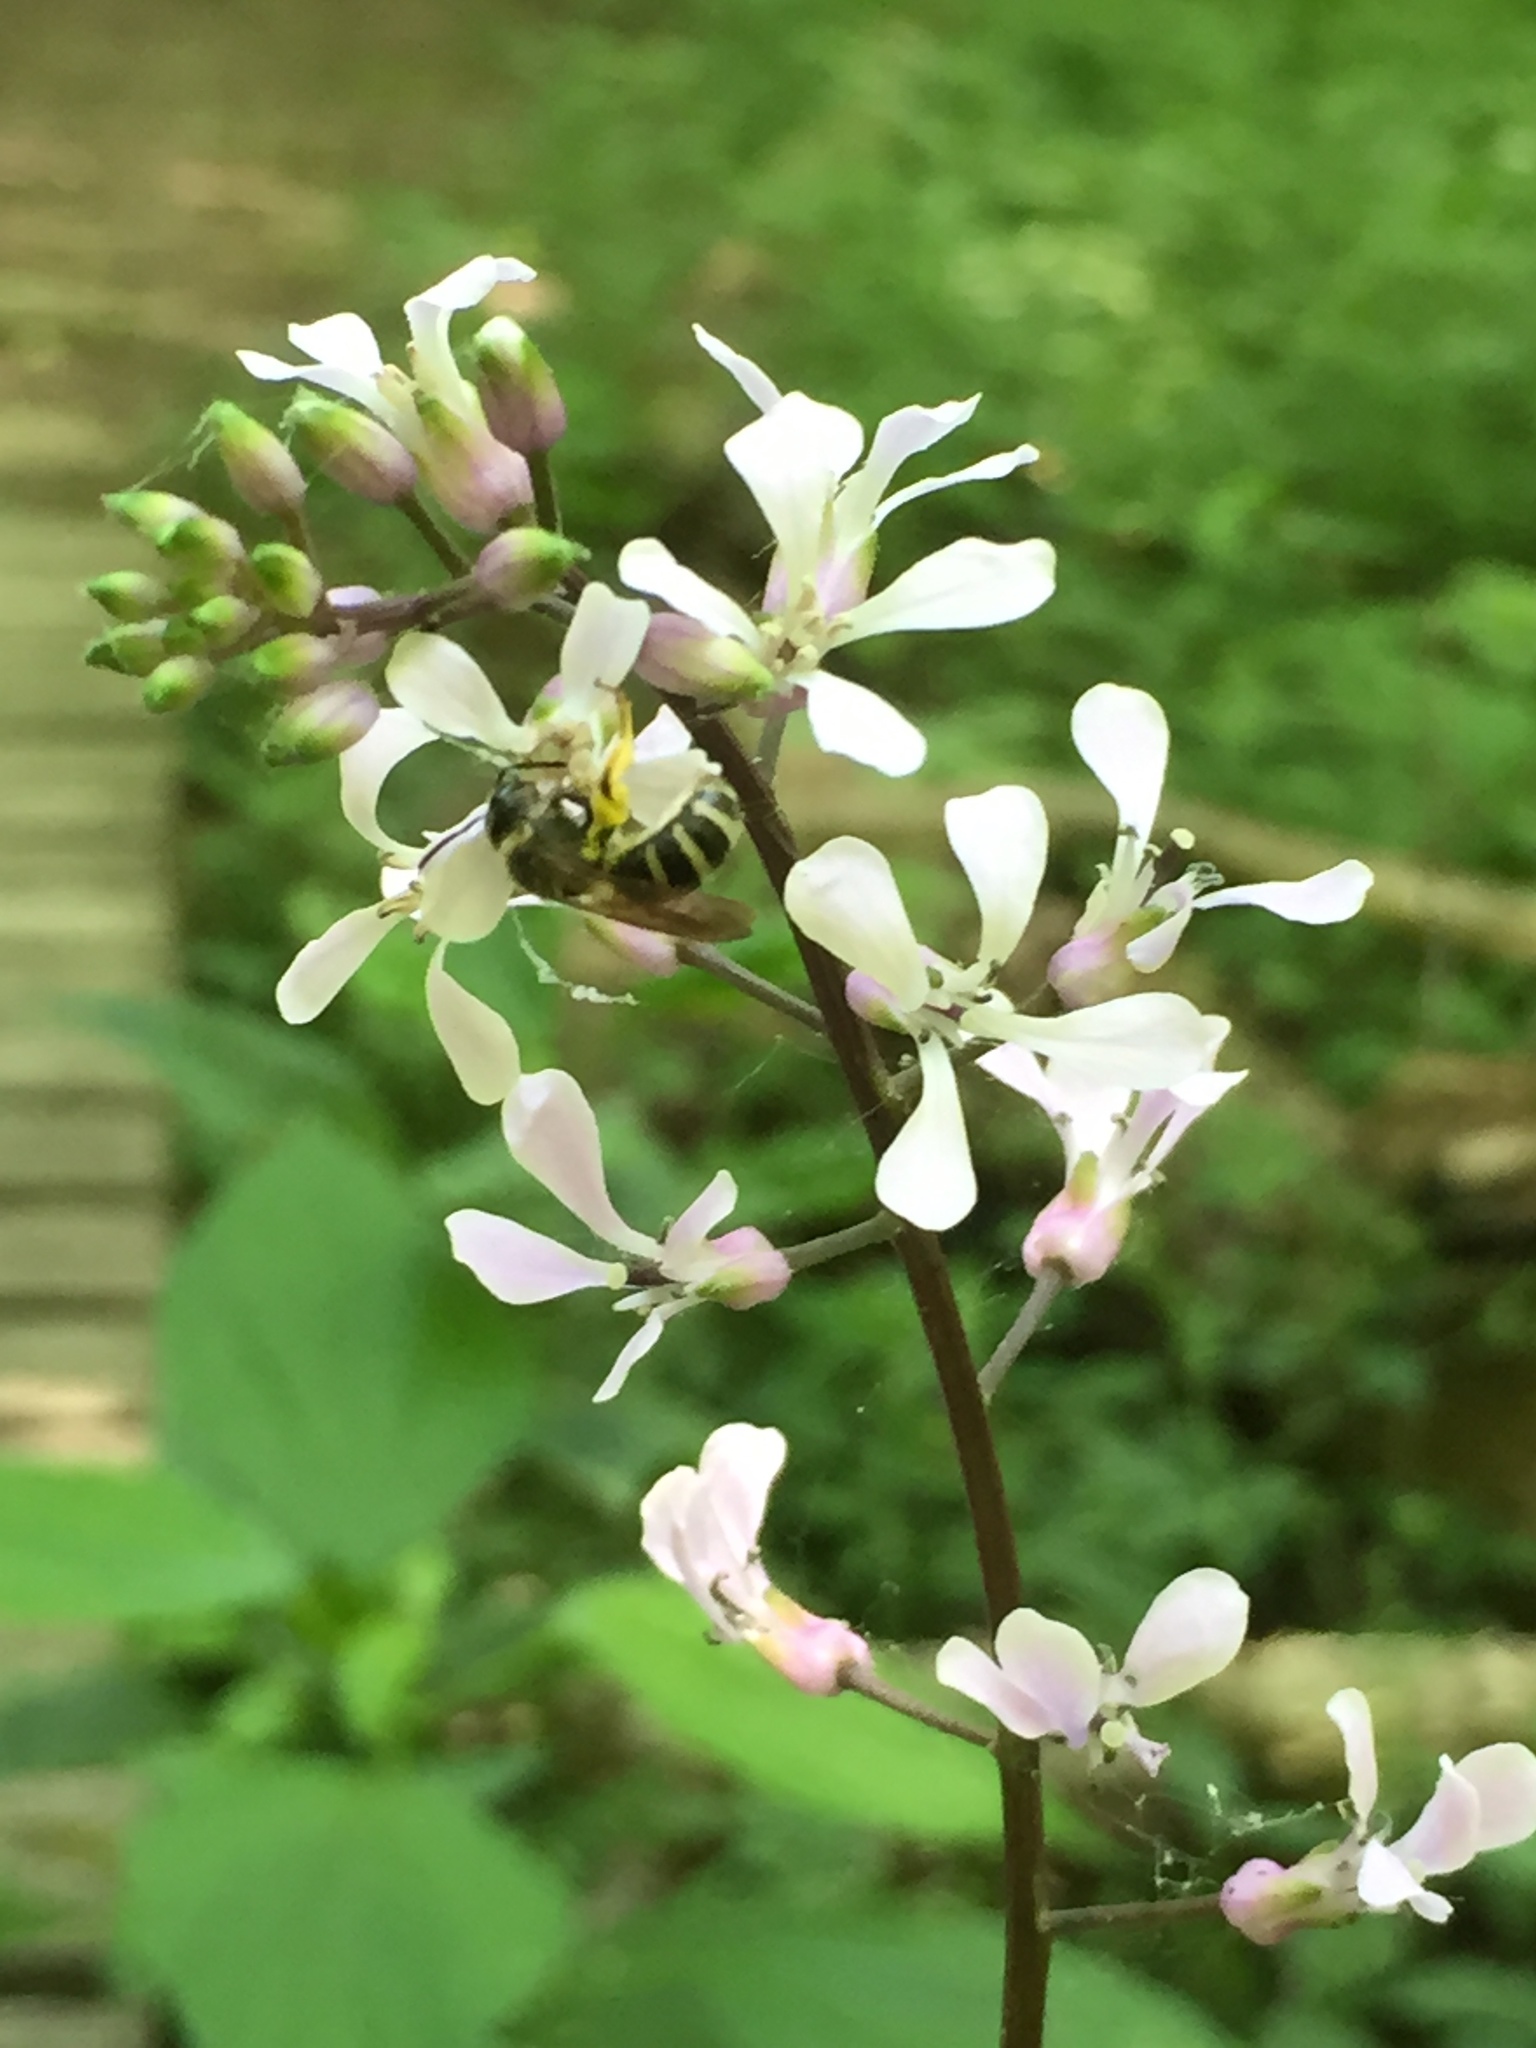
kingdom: Plantae
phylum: Tracheophyta
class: Magnoliopsida
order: Brassicales
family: Brassicaceae
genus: Iodanthus
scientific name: Iodanthus pinnatifidus
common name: Violet rocket
